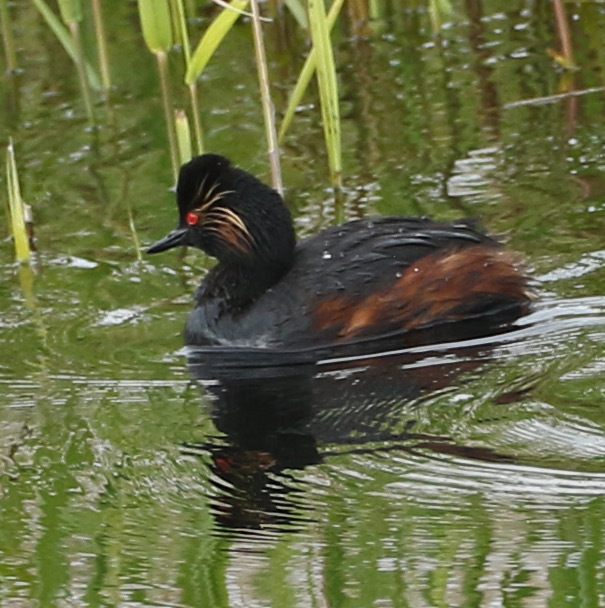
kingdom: Animalia
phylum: Chordata
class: Aves
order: Podicipediformes
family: Podicipedidae
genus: Podiceps
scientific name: Podiceps nigricollis
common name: Black-necked grebe
